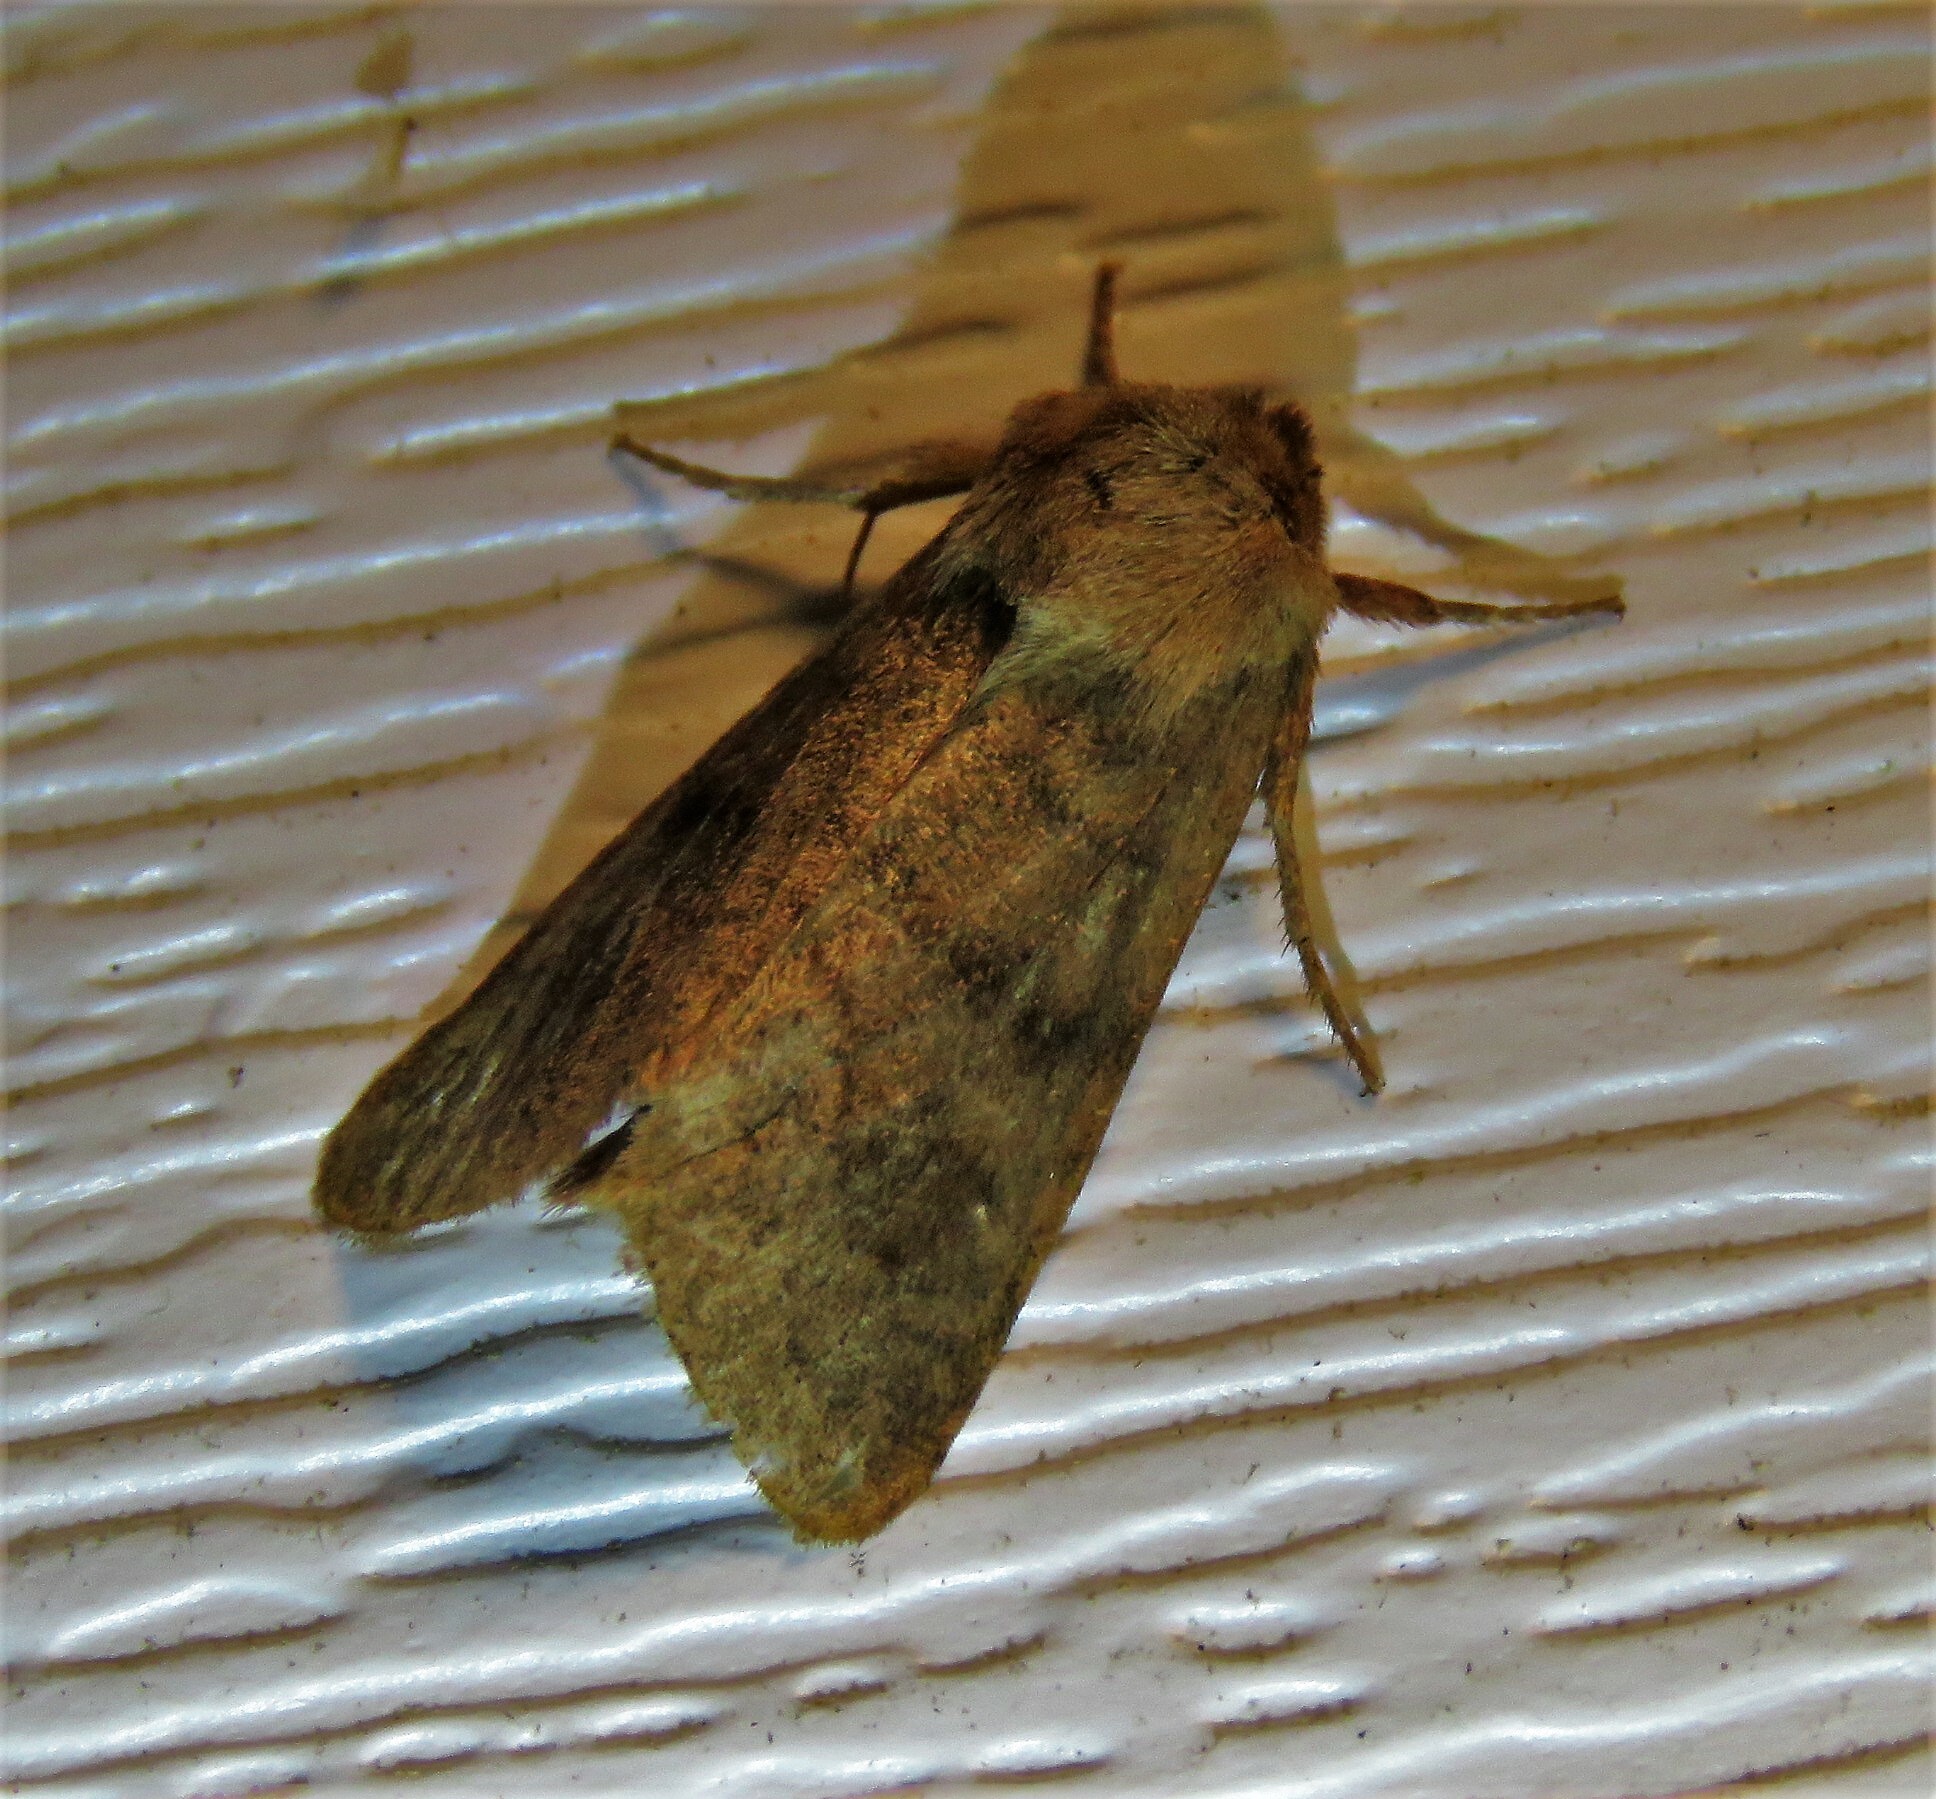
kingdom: Animalia
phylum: Arthropoda
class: Insecta
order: Lepidoptera
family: Noctuidae
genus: Nephelodes
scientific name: Nephelodes minians
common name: Bronzed cutworm
